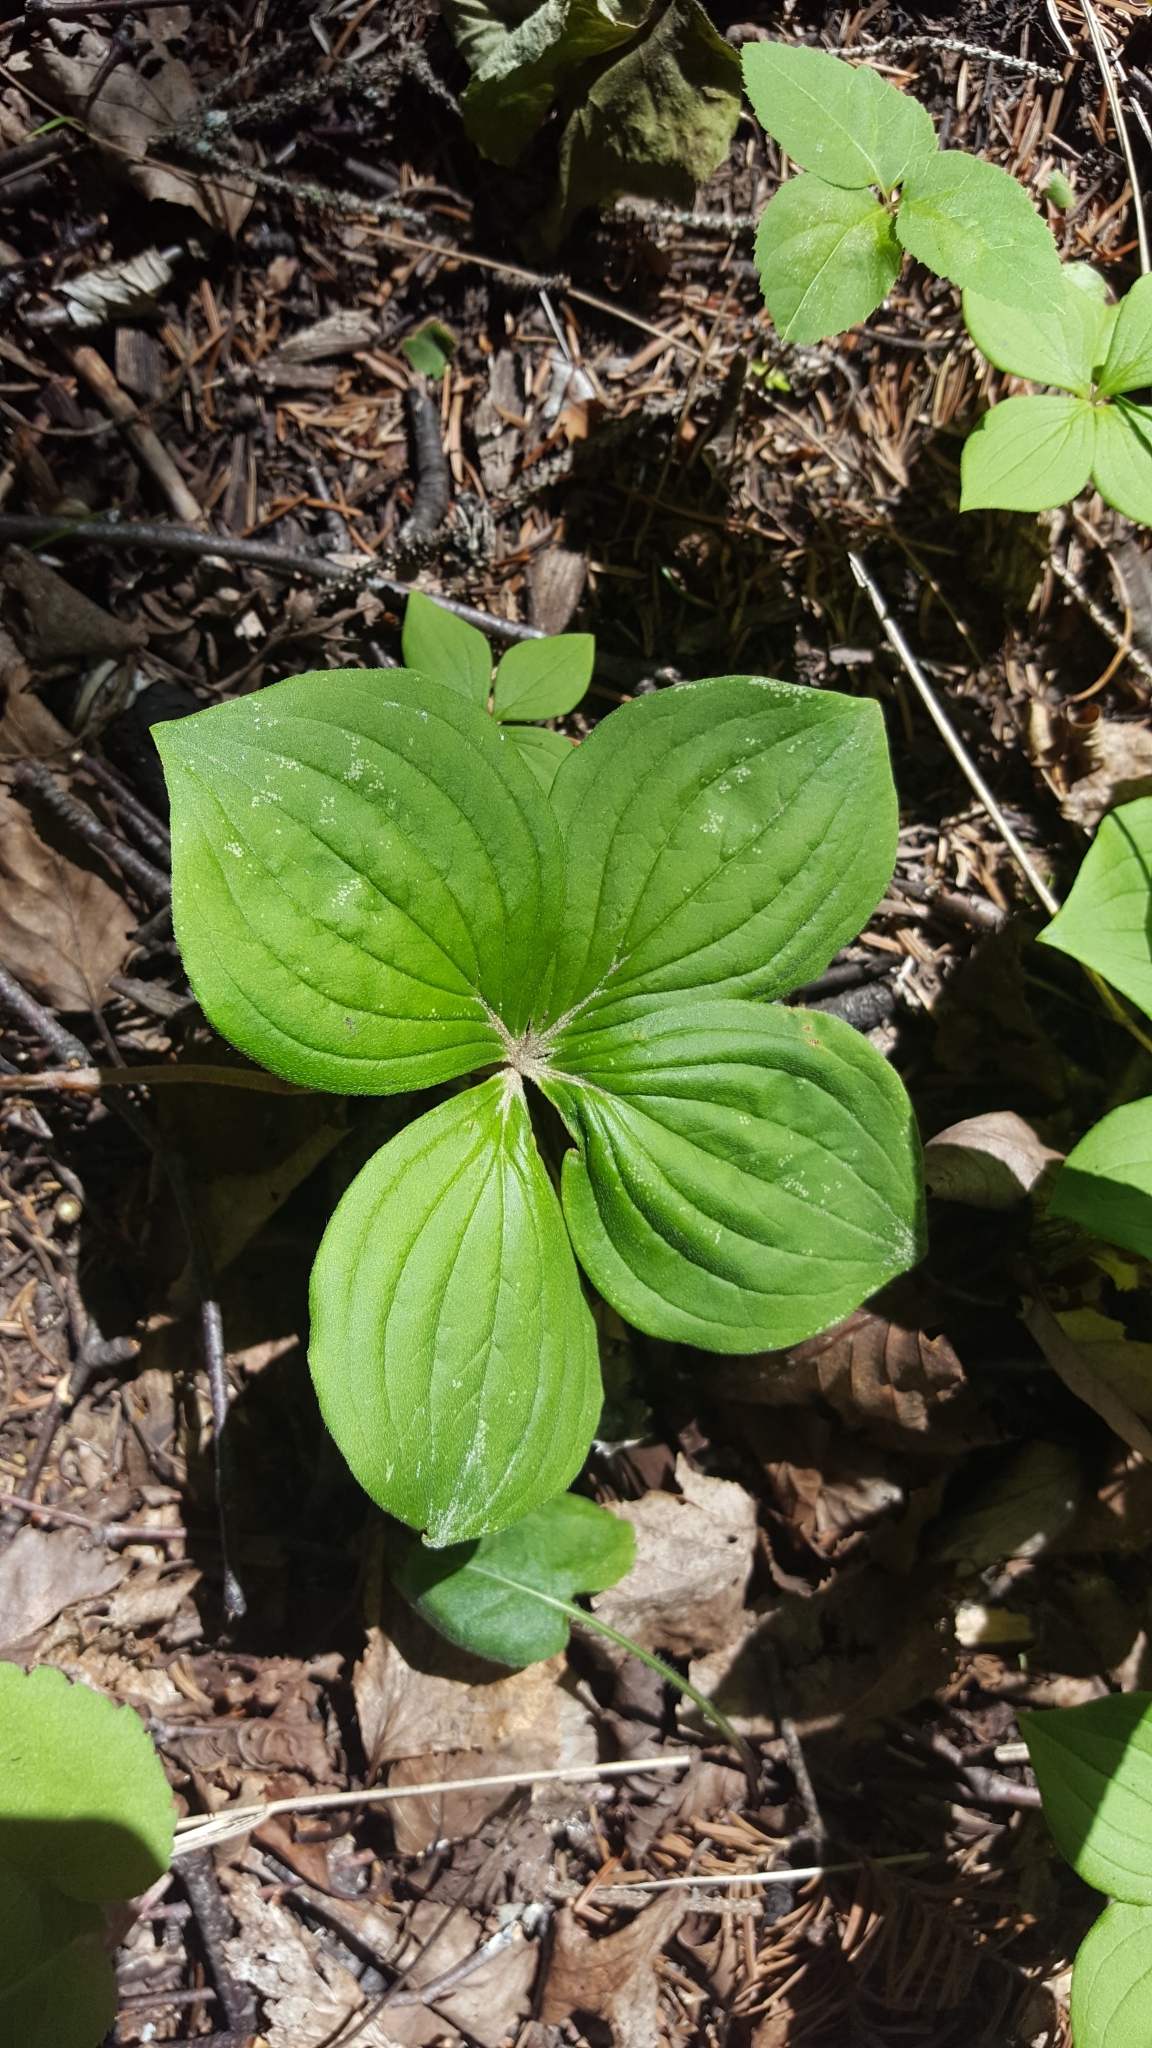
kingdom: Plantae
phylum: Tracheophyta
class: Magnoliopsida
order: Cornales
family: Cornaceae
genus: Cornus
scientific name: Cornus canadensis
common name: Creeping dogwood
